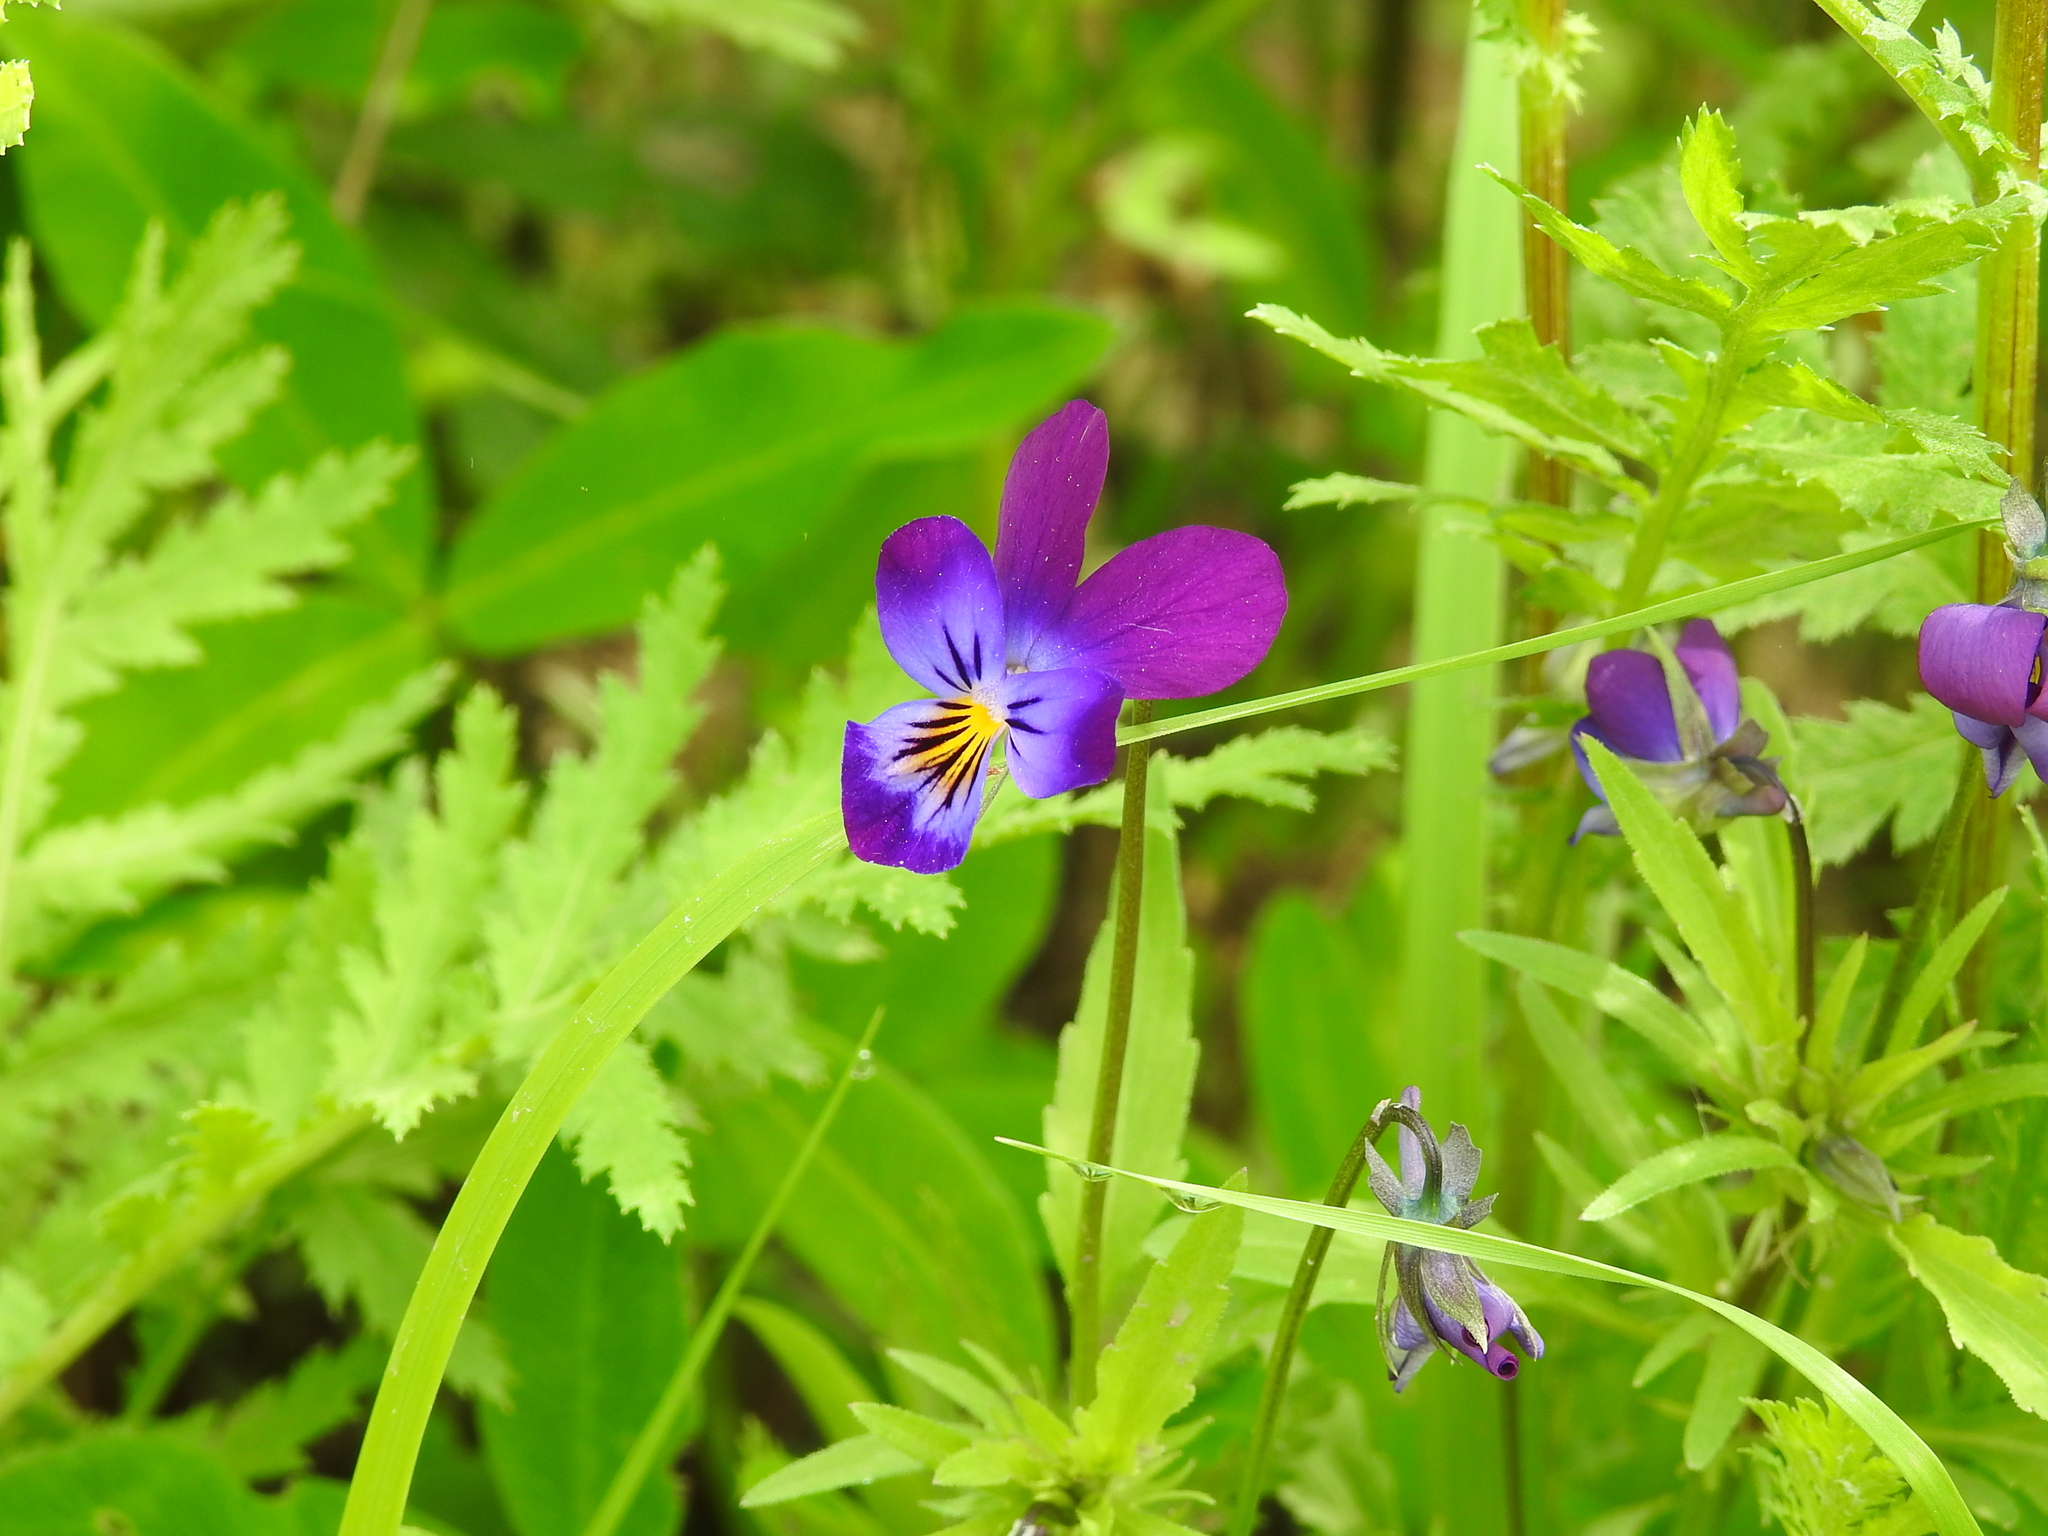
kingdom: Plantae
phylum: Tracheophyta
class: Magnoliopsida
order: Malpighiales
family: Violaceae
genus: Viola
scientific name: Viola tricolor
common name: Pansy
